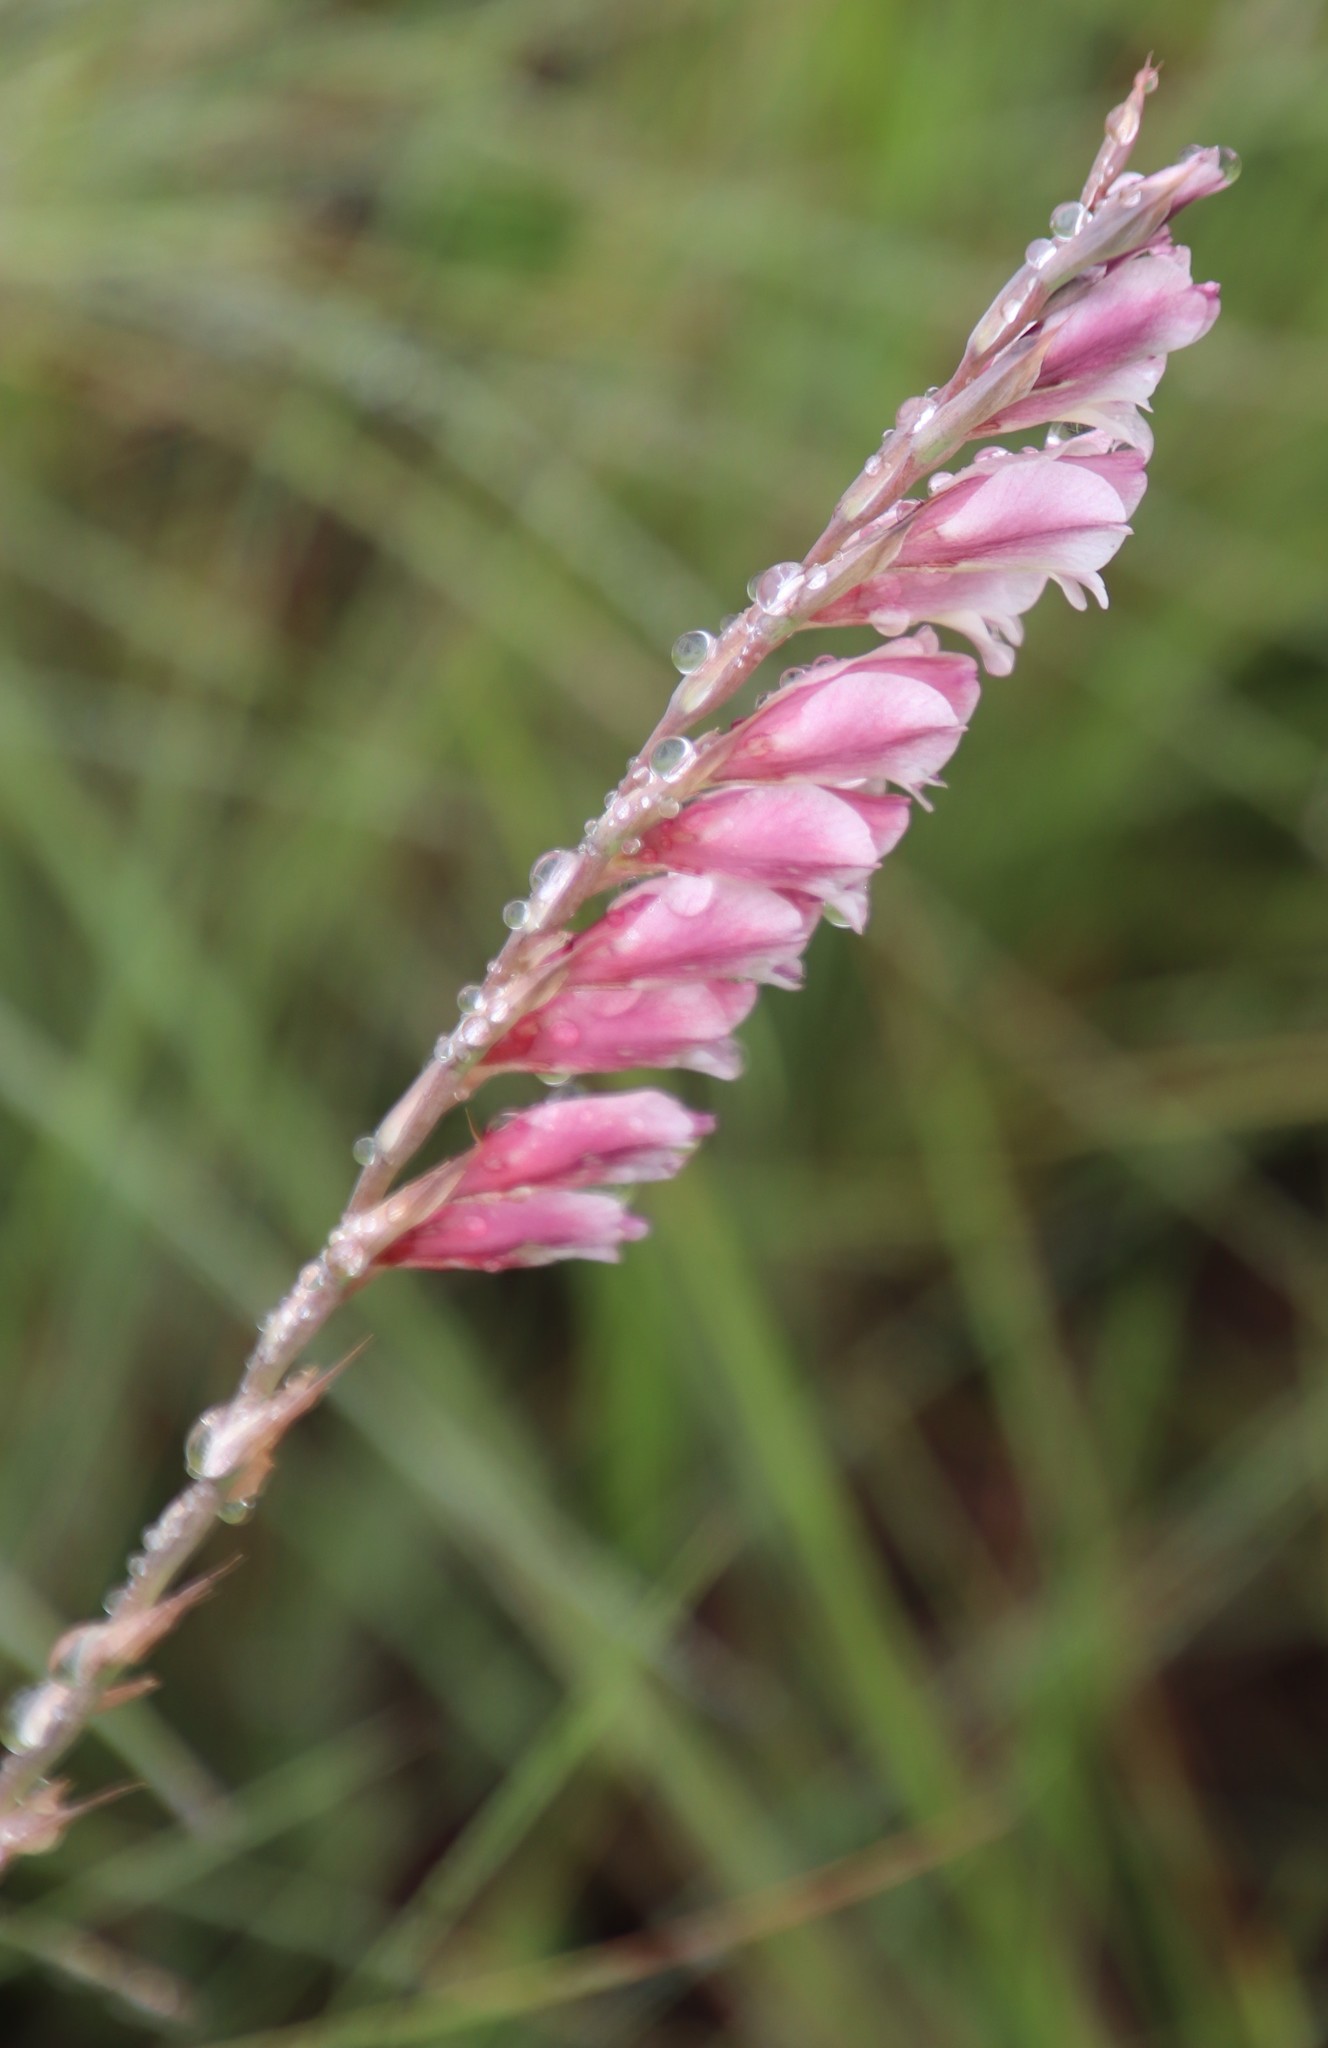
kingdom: Plantae
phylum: Tracheophyta
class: Liliopsida
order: Asparagales
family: Iridaceae
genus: Gladiolus
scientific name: Gladiolus crassifolius
